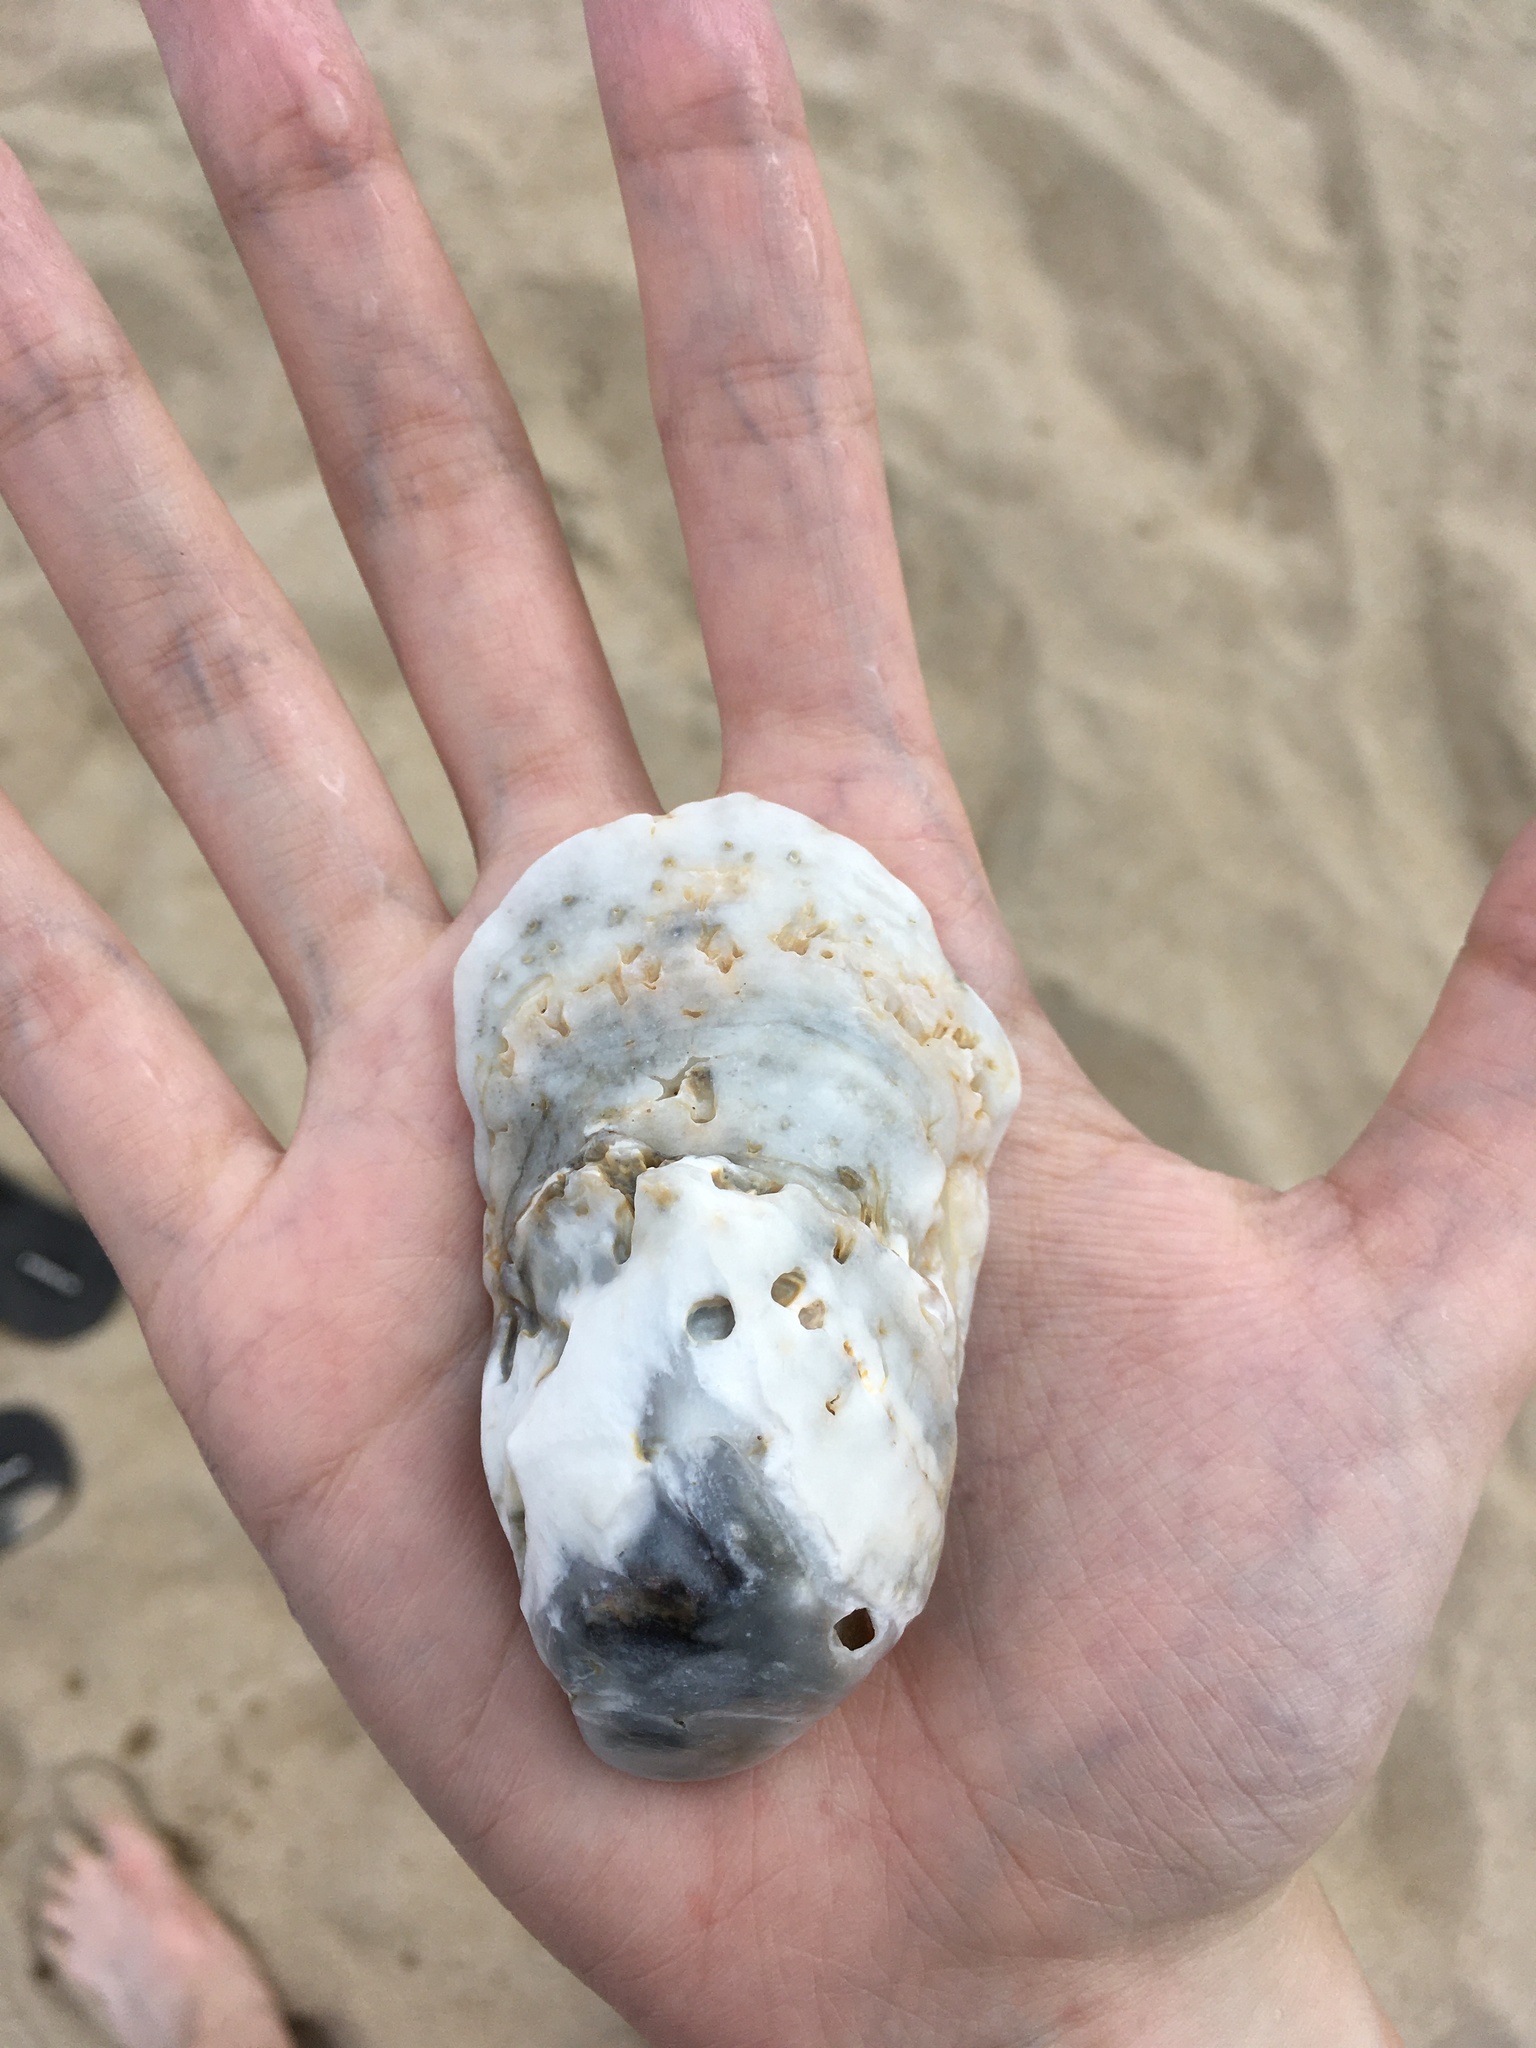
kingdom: Animalia
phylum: Mollusca
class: Bivalvia
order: Ostreida
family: Ostreidae
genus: Crassostrea
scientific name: Crassostrea virginica
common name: American oyster
